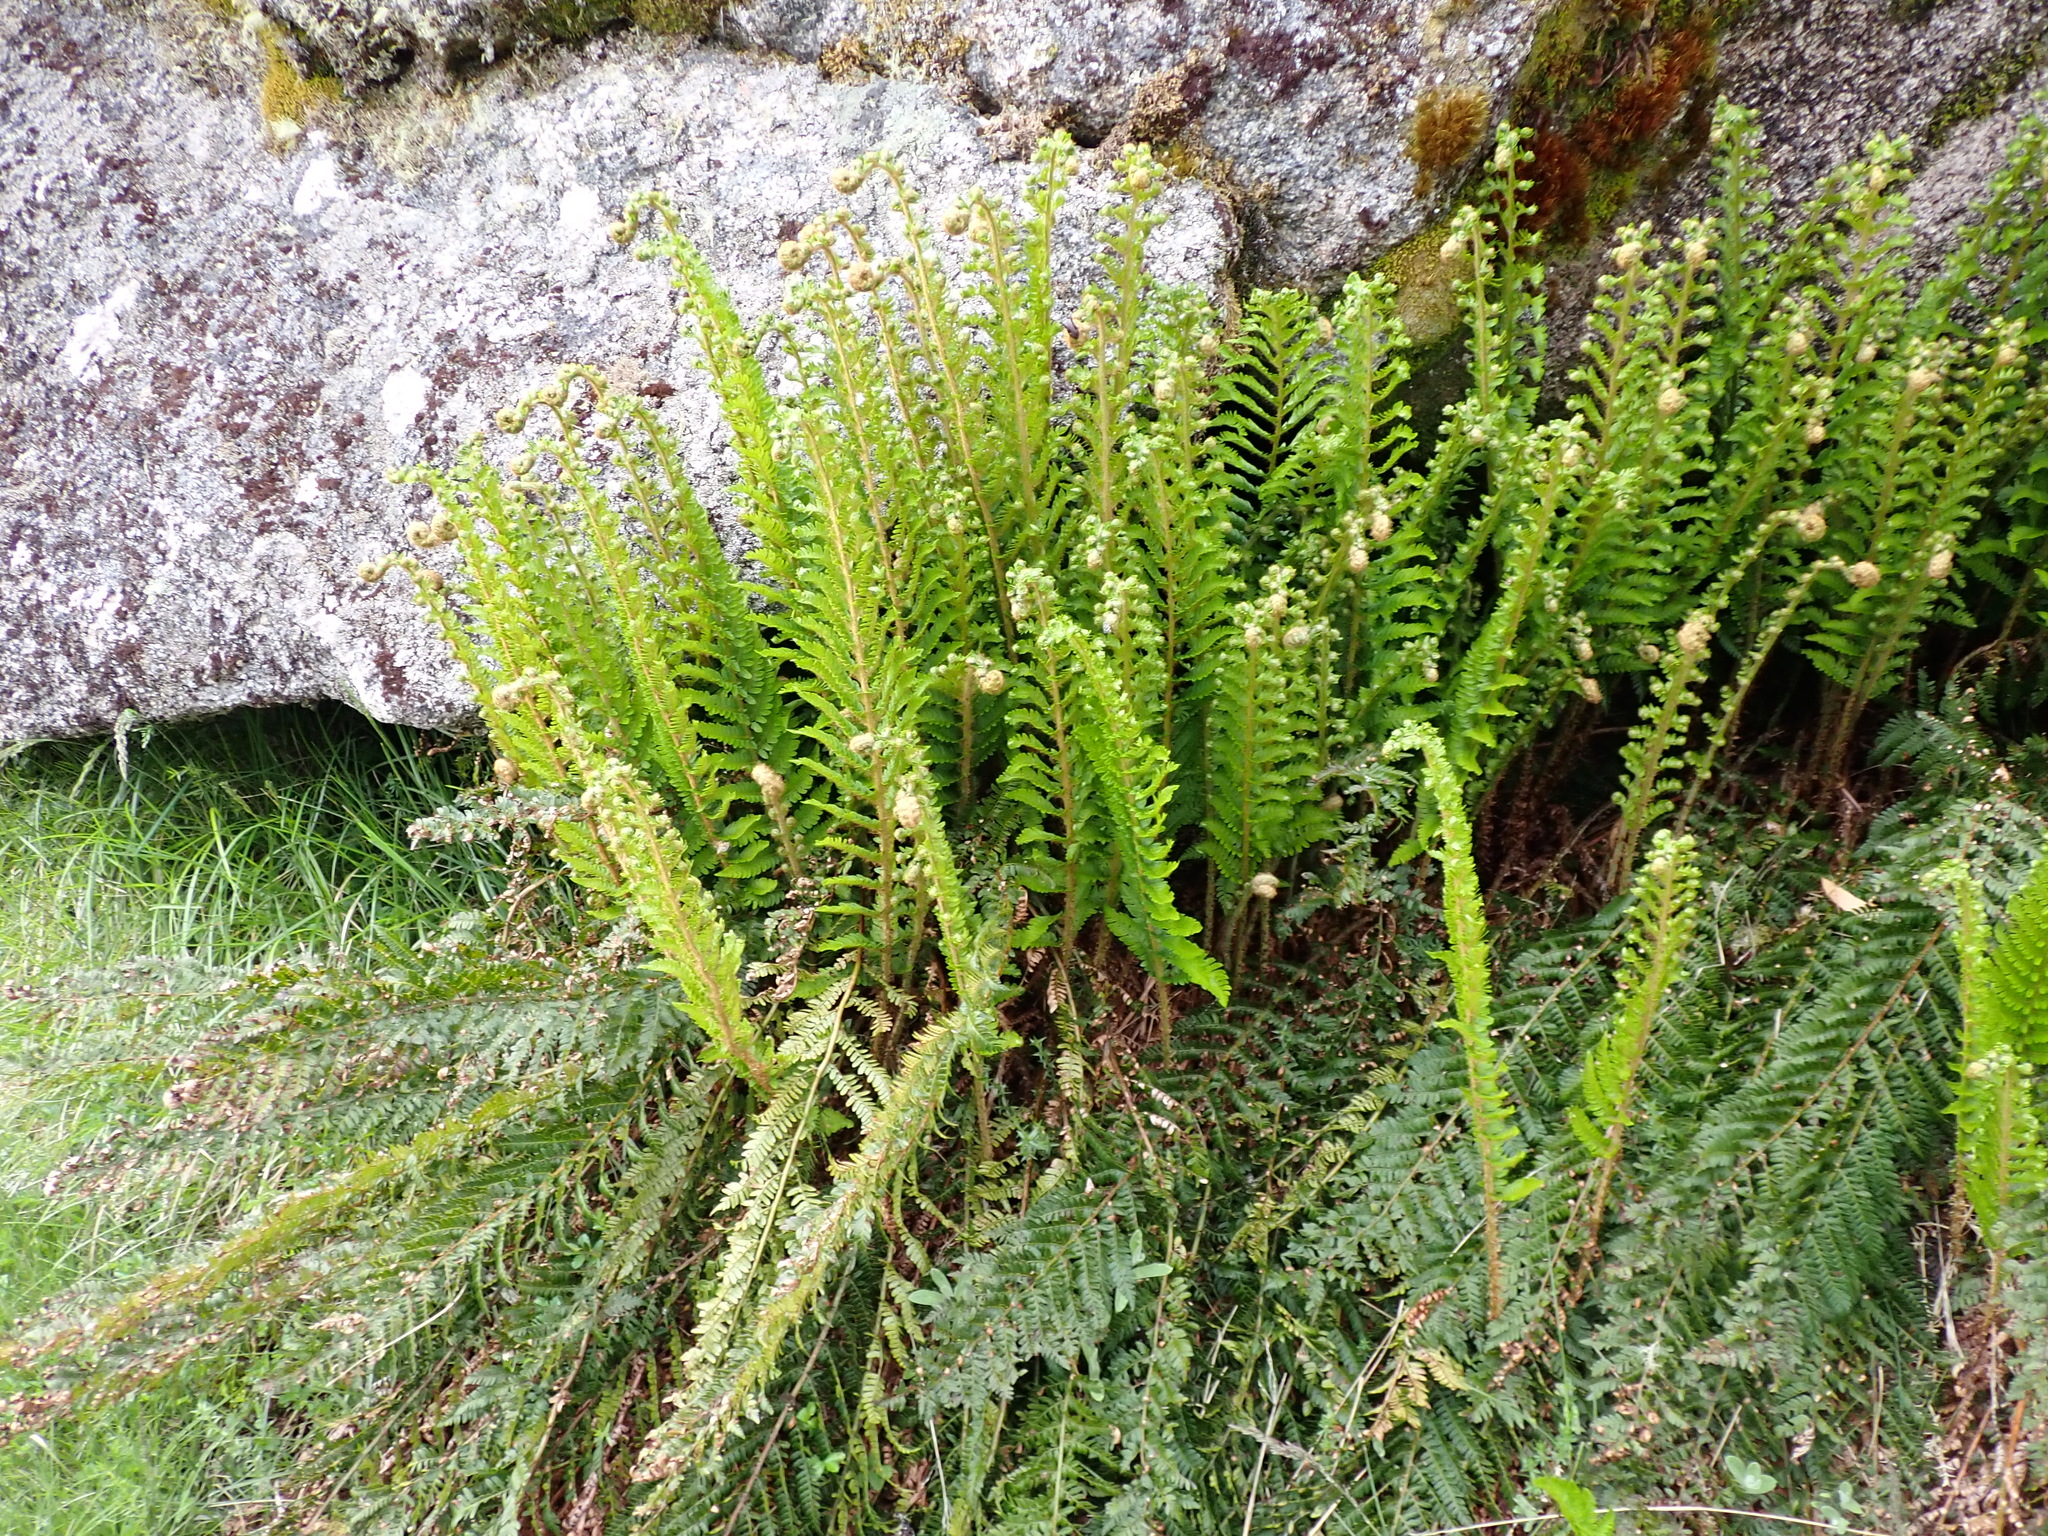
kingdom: Plantae
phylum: Tracheophyta
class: Polypodiopsida
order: Polypodiales
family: Dryopteridaceae
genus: Polystichum
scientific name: Polystichum proliferum
